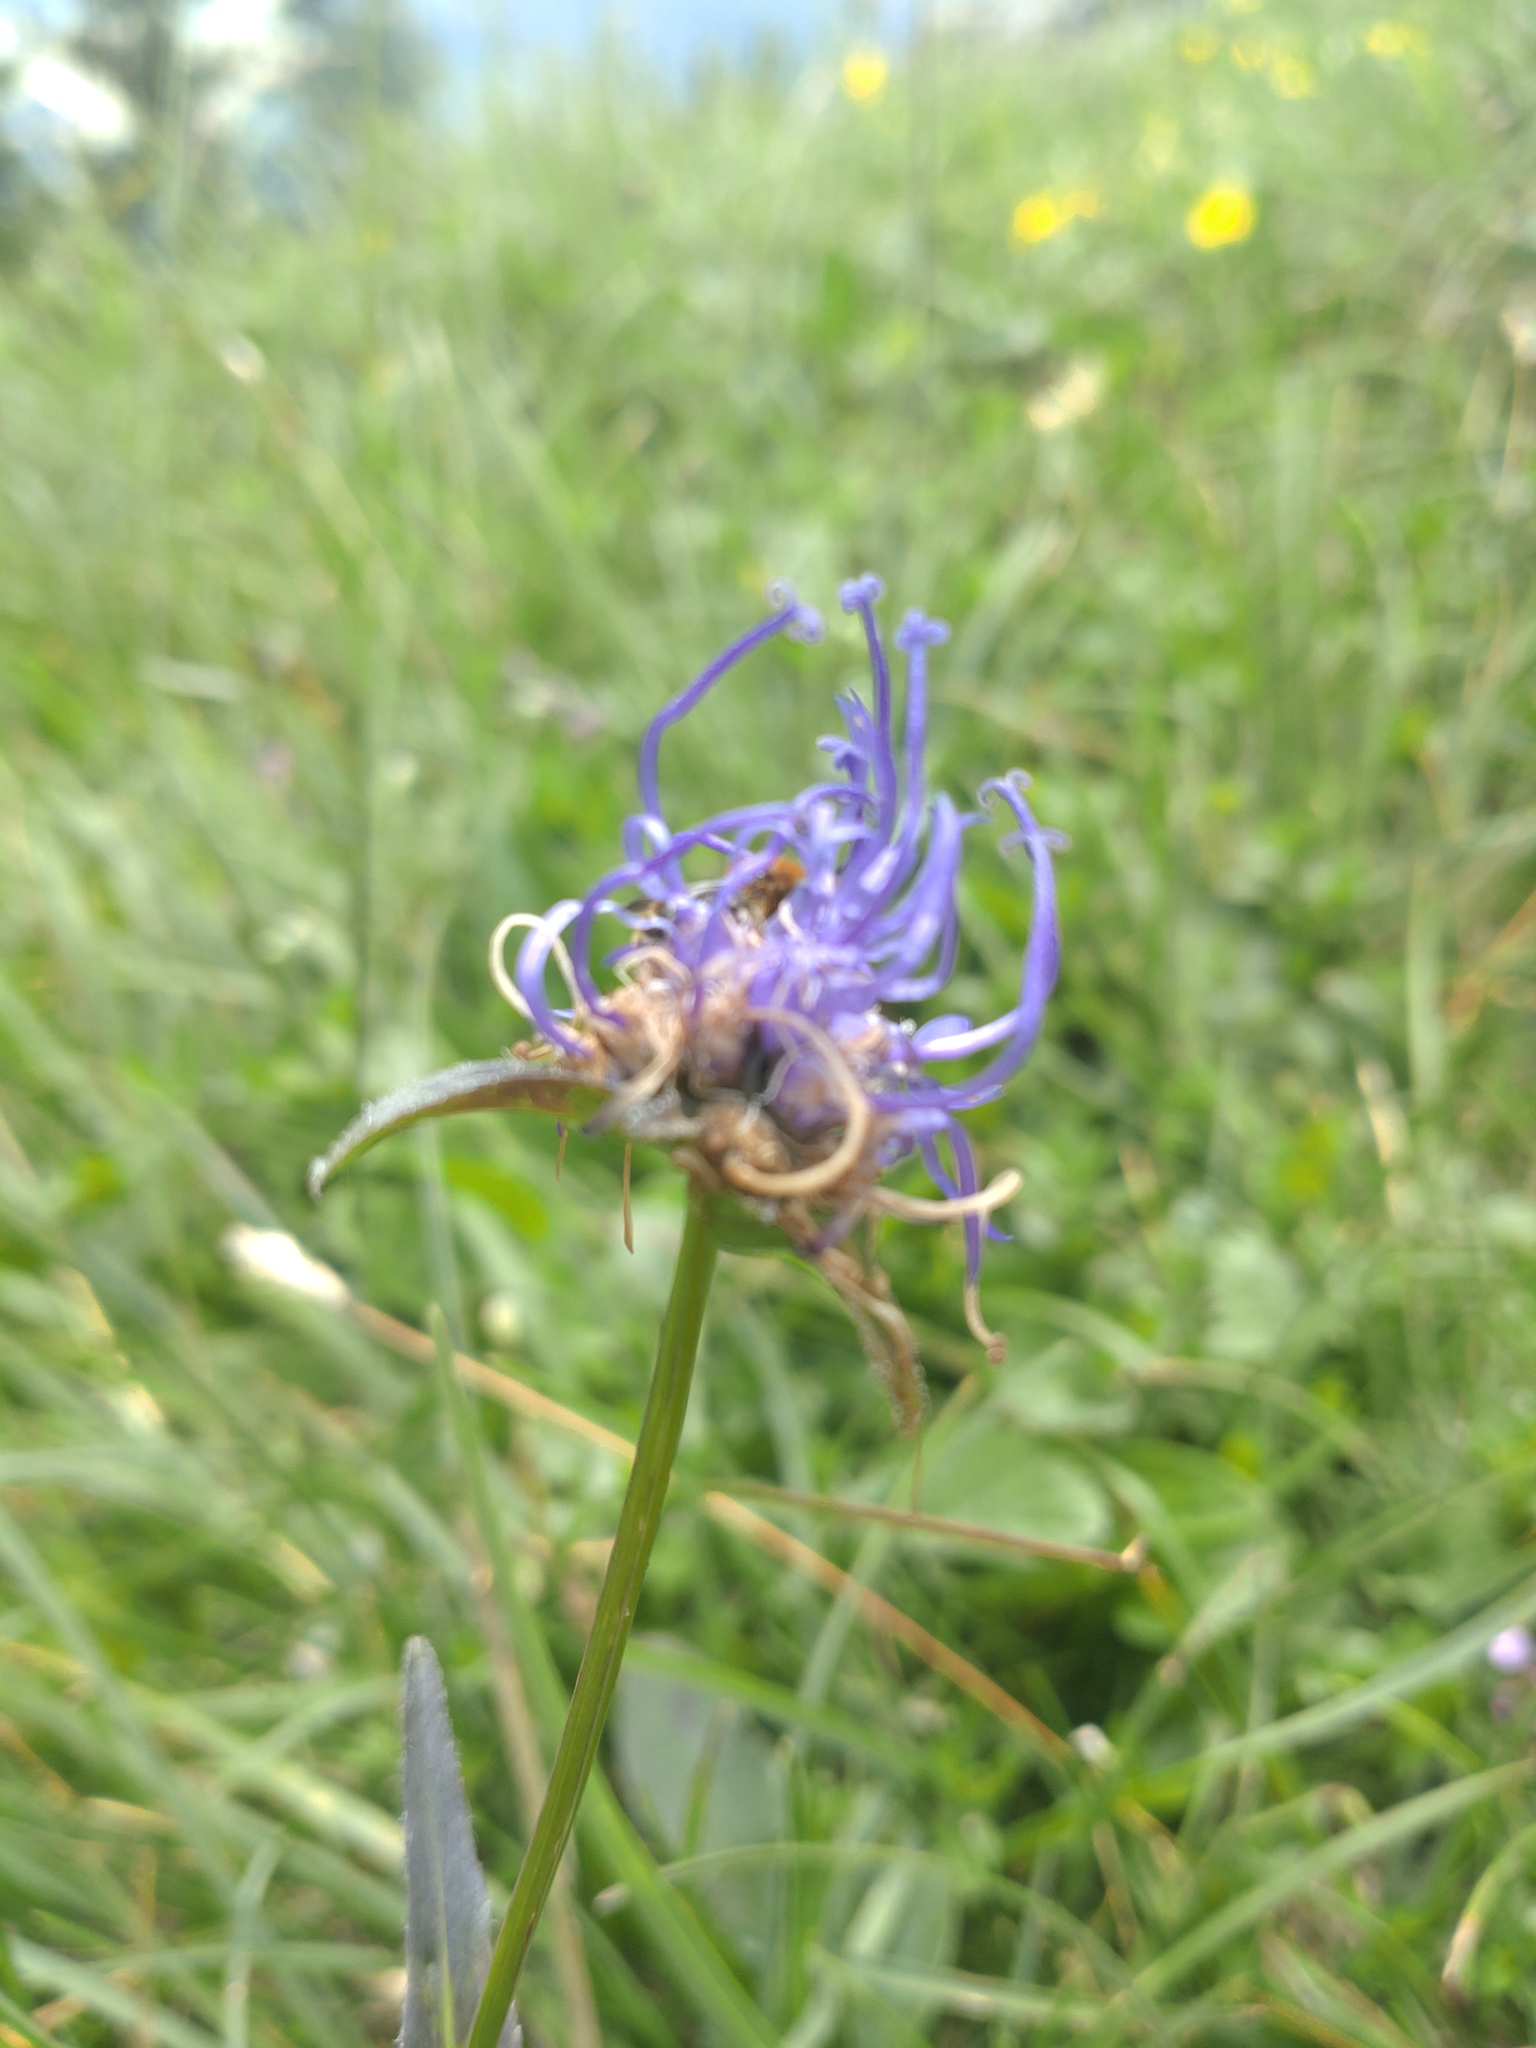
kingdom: Plantae
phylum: Tracheophyta
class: Magnoliopsida
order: Asterales
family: Campanulaceae
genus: Phyteuma
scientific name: Phyteuma orbiculare
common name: Round-headed rampion
